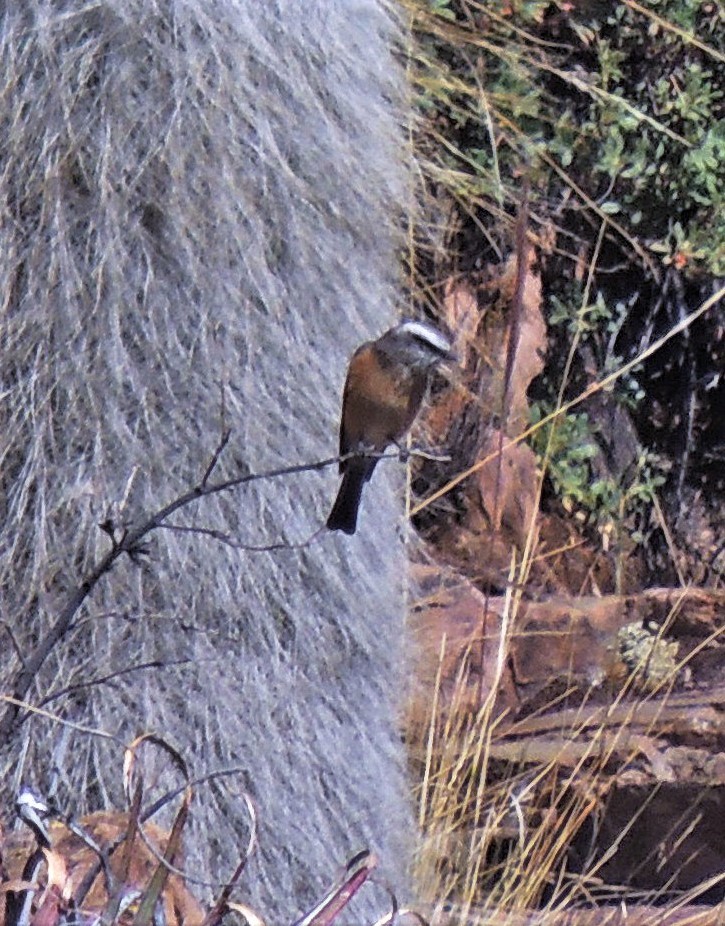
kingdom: Animalia
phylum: Chordata
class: Aves
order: Passeriformes
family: Tyrannidae
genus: Ochthoeca
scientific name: Ochthoeca oenanthoides
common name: D'orbigny's chat-tyrant
